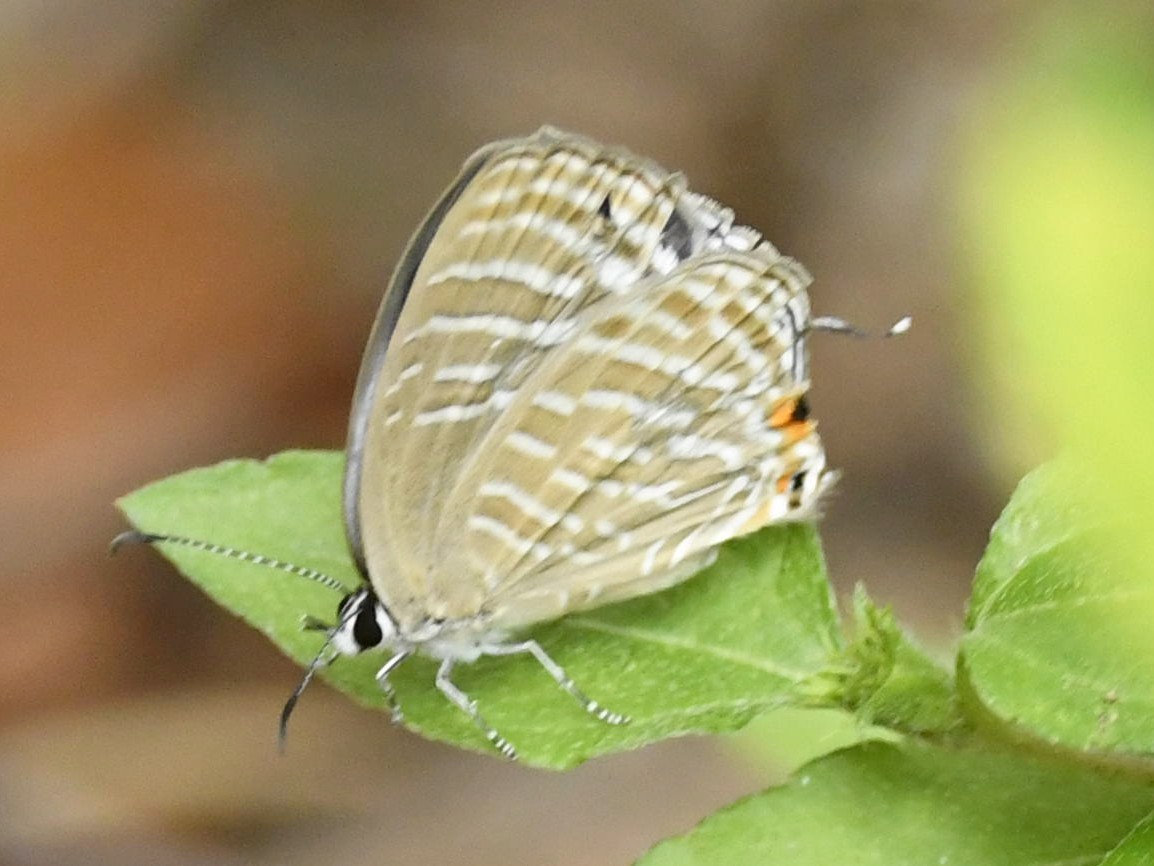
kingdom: Animalia
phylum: Arthropoda
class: Insecta
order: Lepidoptera
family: Lycaenidae
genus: Jamides
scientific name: Jamides celeno
